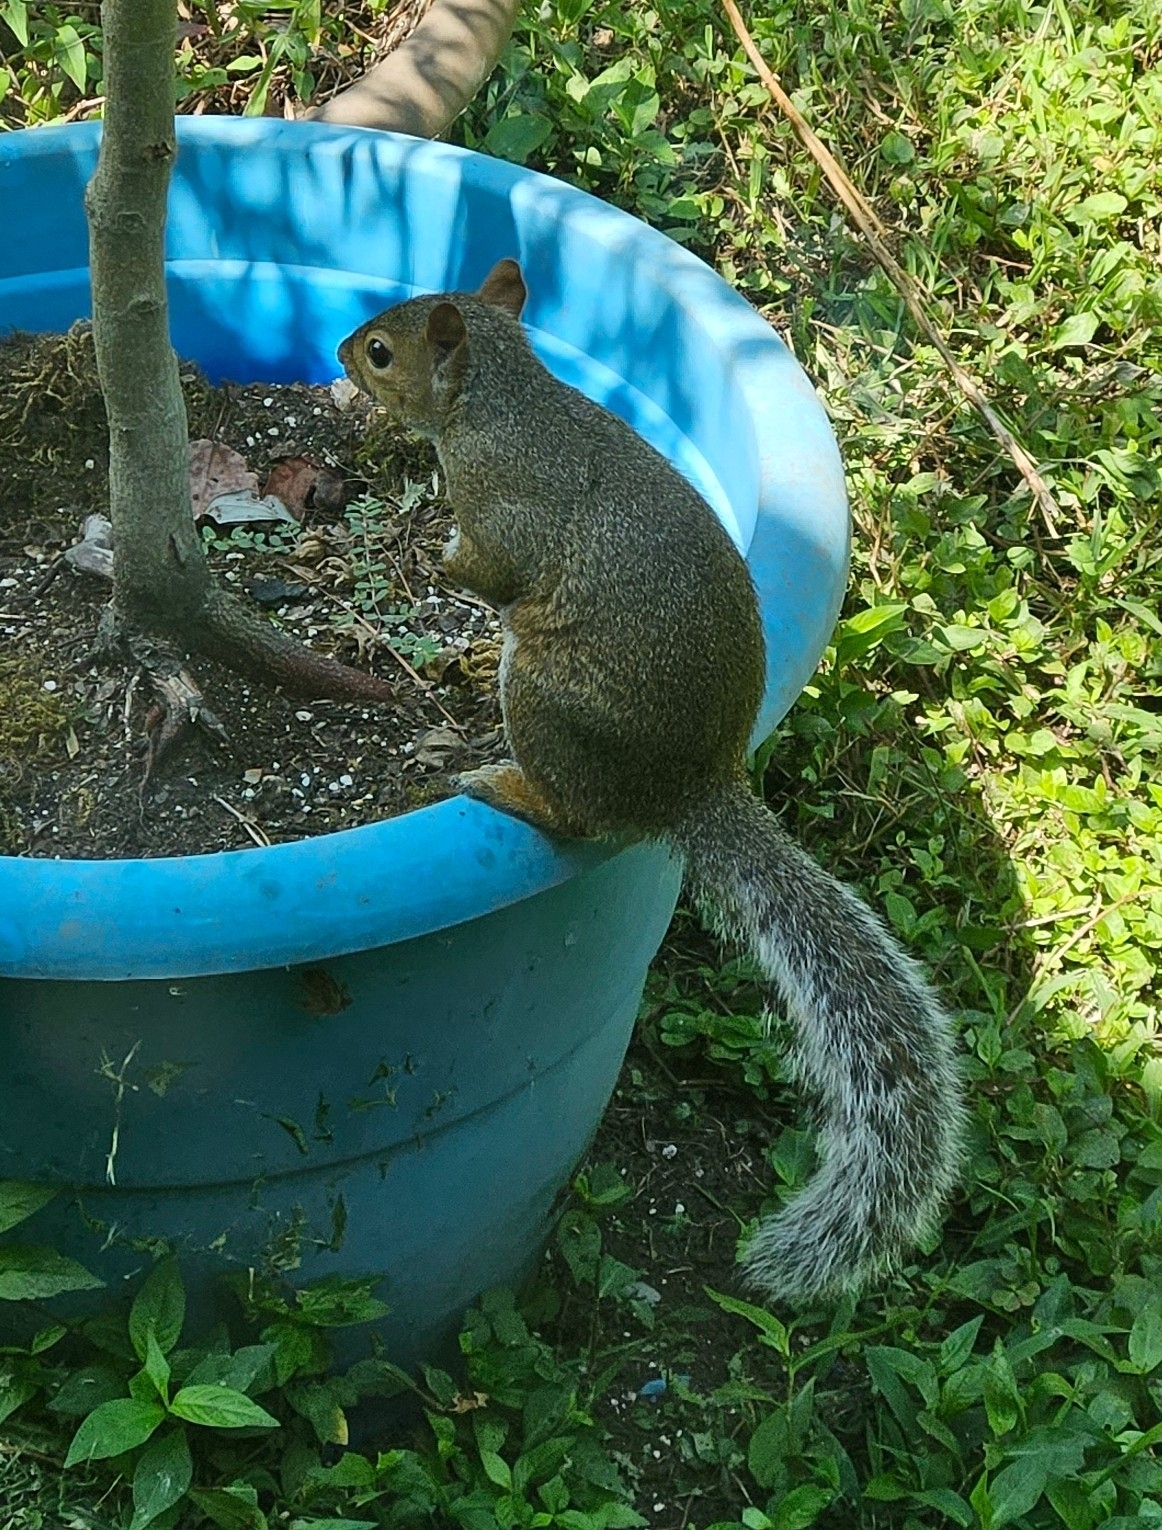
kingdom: Animalia
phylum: Chordata
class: Mammalia
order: Rodentia
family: Sciuridae
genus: Sciurus
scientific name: Sciurus carolinensis
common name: Eastern gray squirrel
